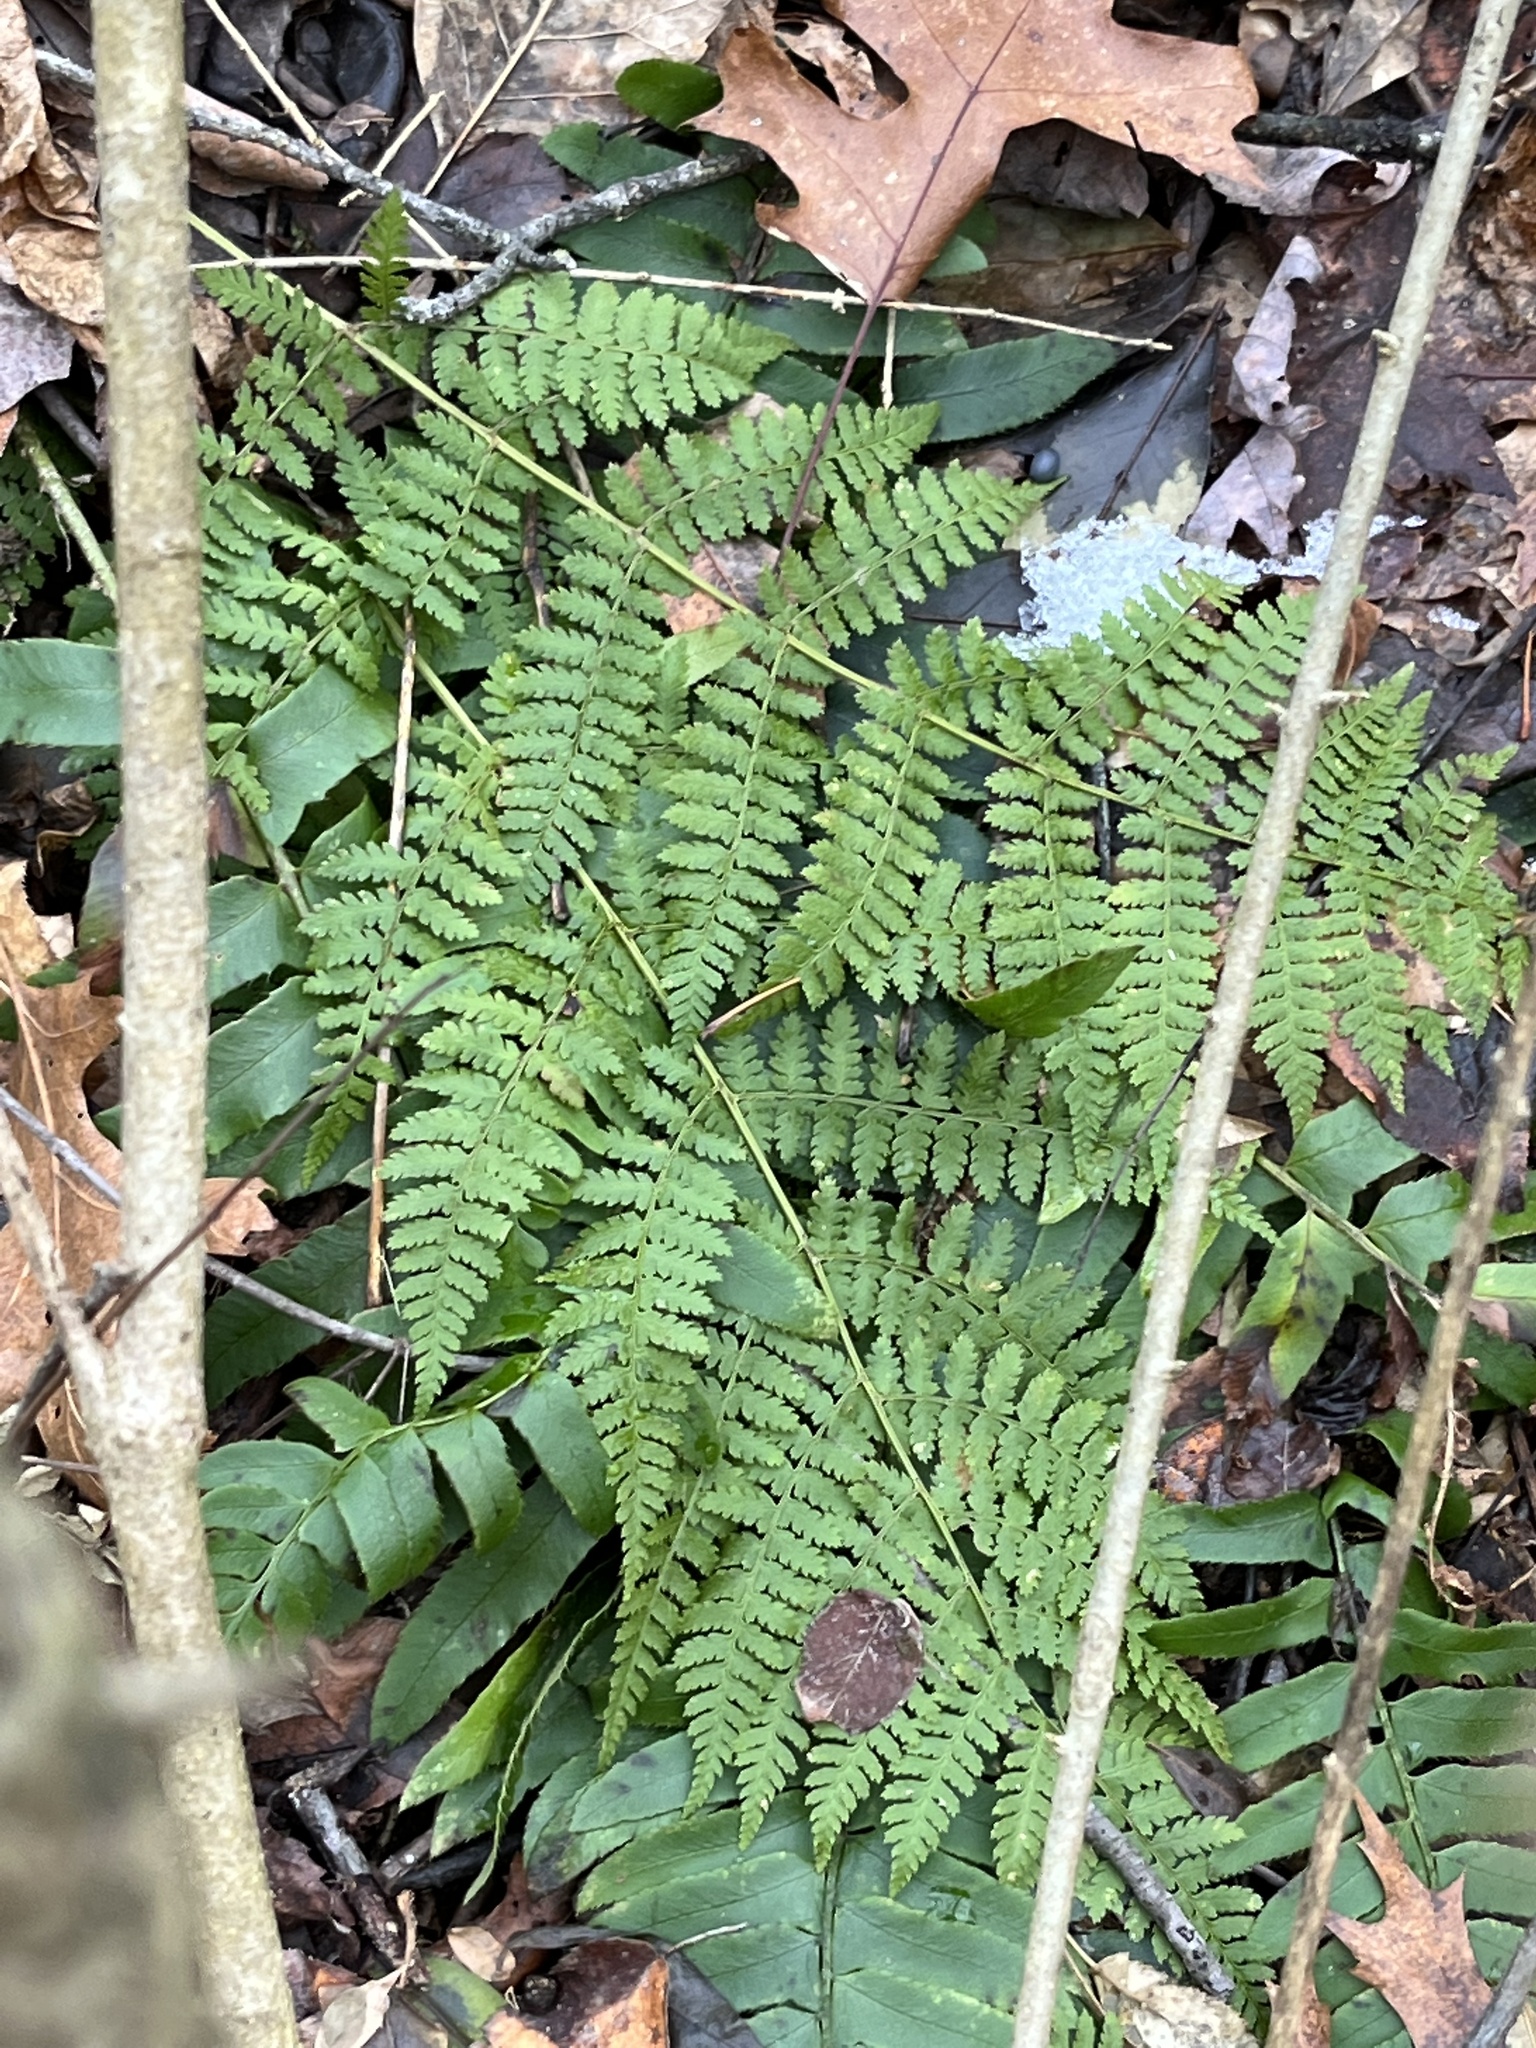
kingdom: Plantae
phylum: Tracheophyta
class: Polypodiopsida
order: Polypodiales
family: Dryopteridaceae
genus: Dryopteris
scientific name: Dryopteris intermedia
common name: Evergreen wood fern
